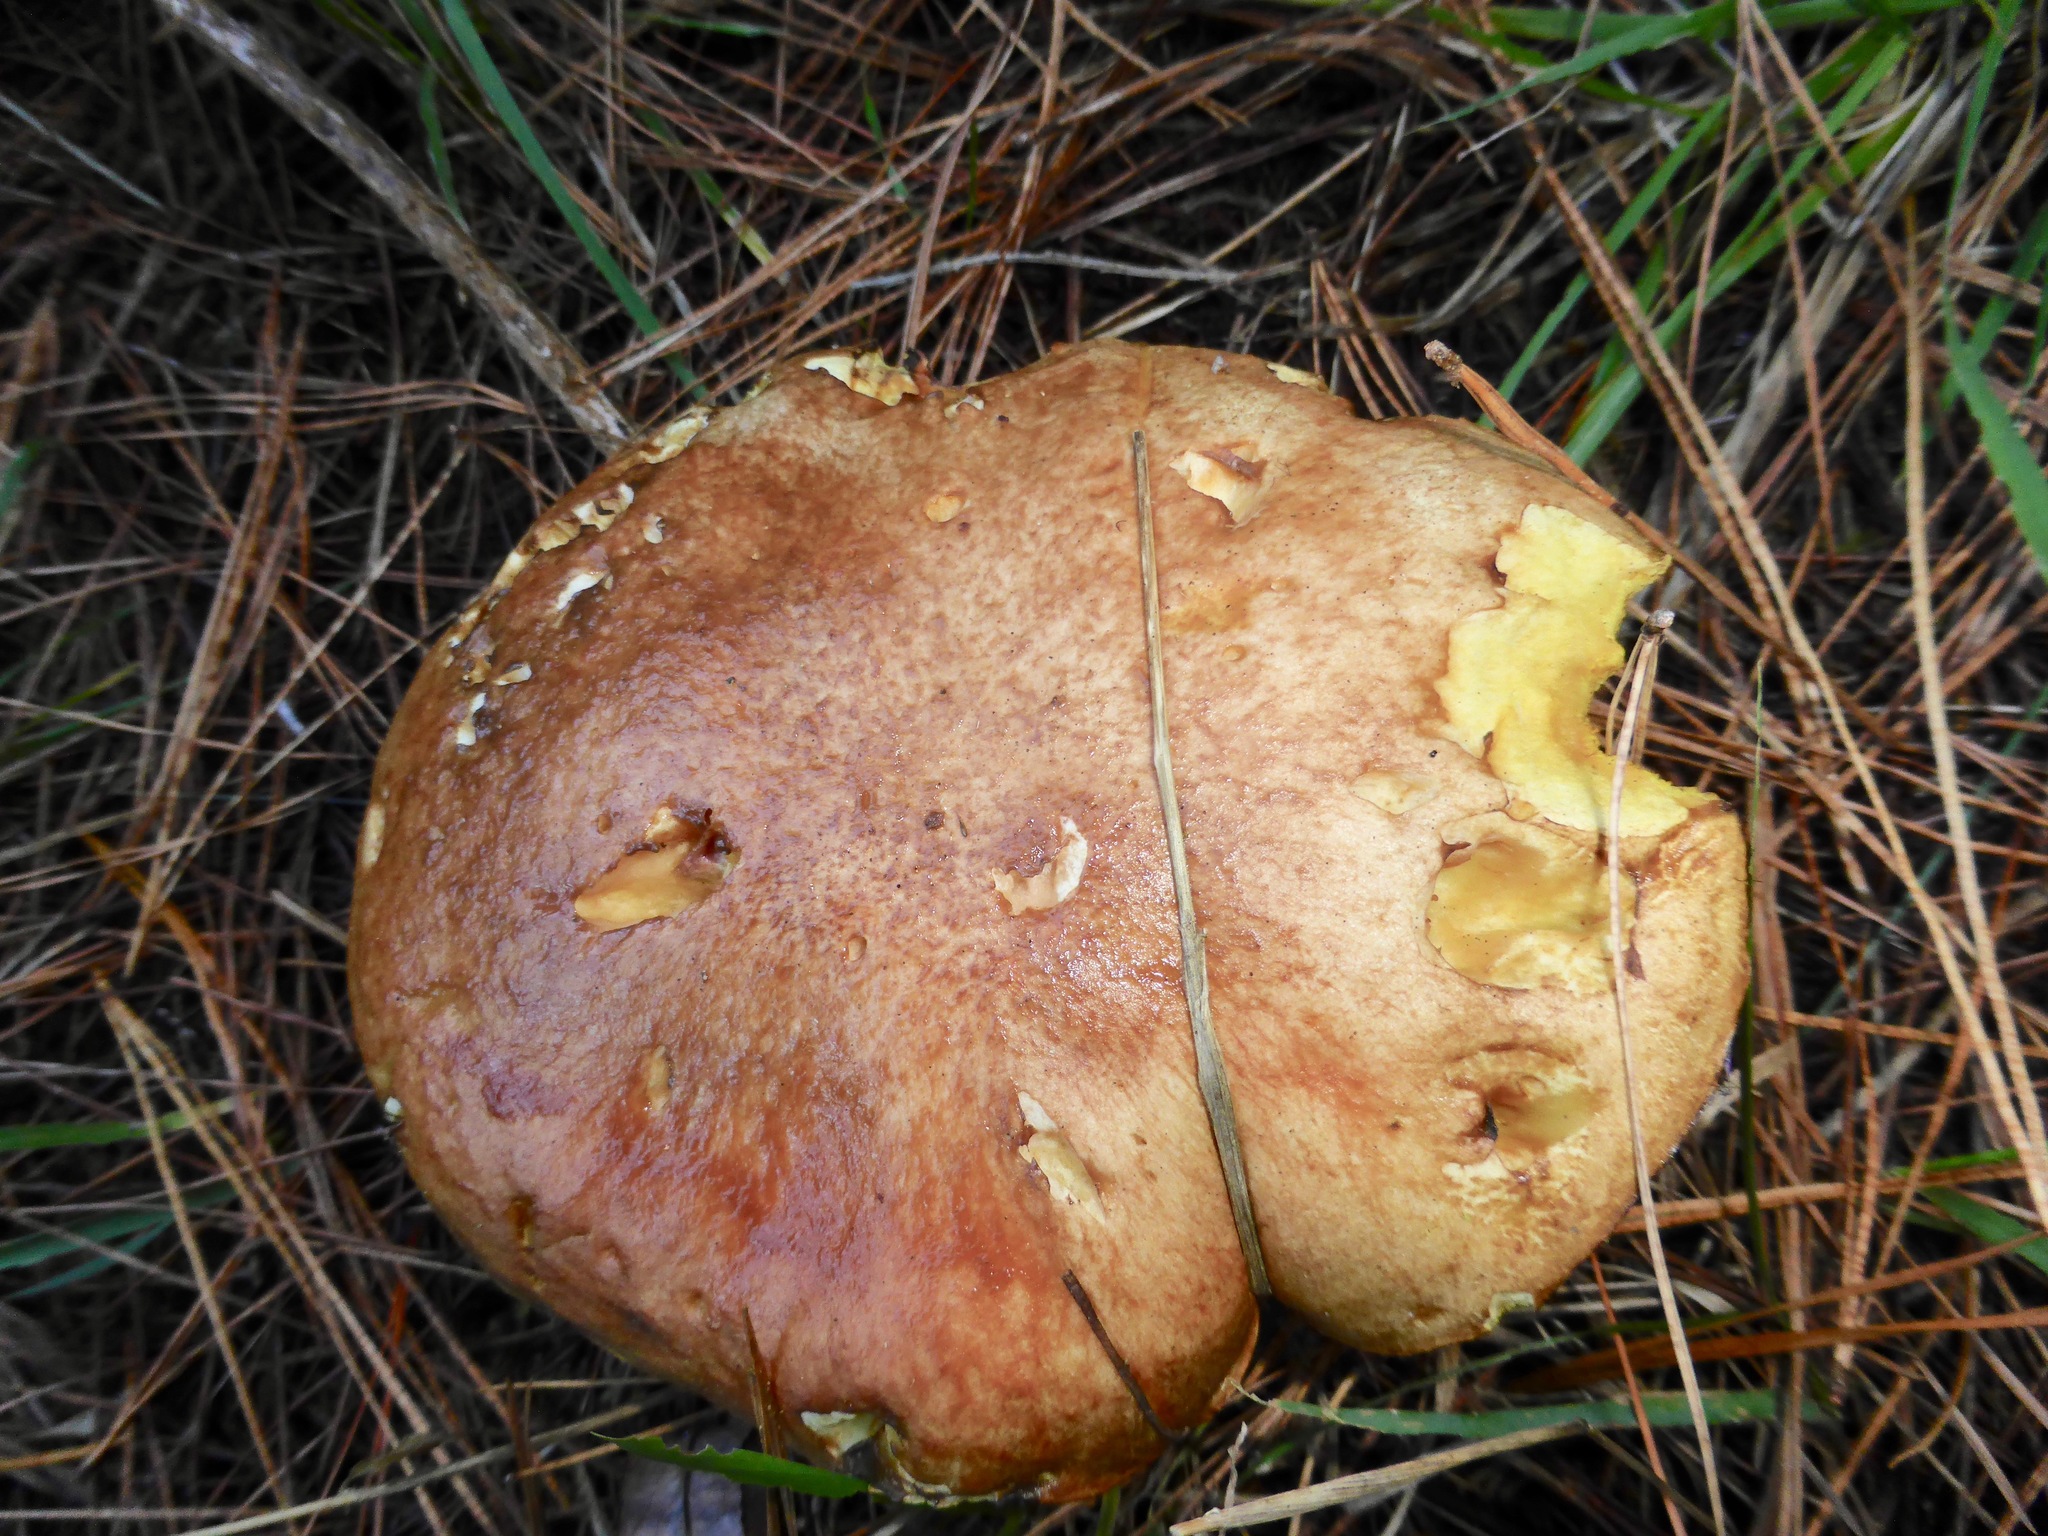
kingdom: Fungi
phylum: Basidiomycota
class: Agaricomycetes
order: Boletales
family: Suillaceae
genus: Suillus
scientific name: Suillus granulatus
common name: Weeping bolete
